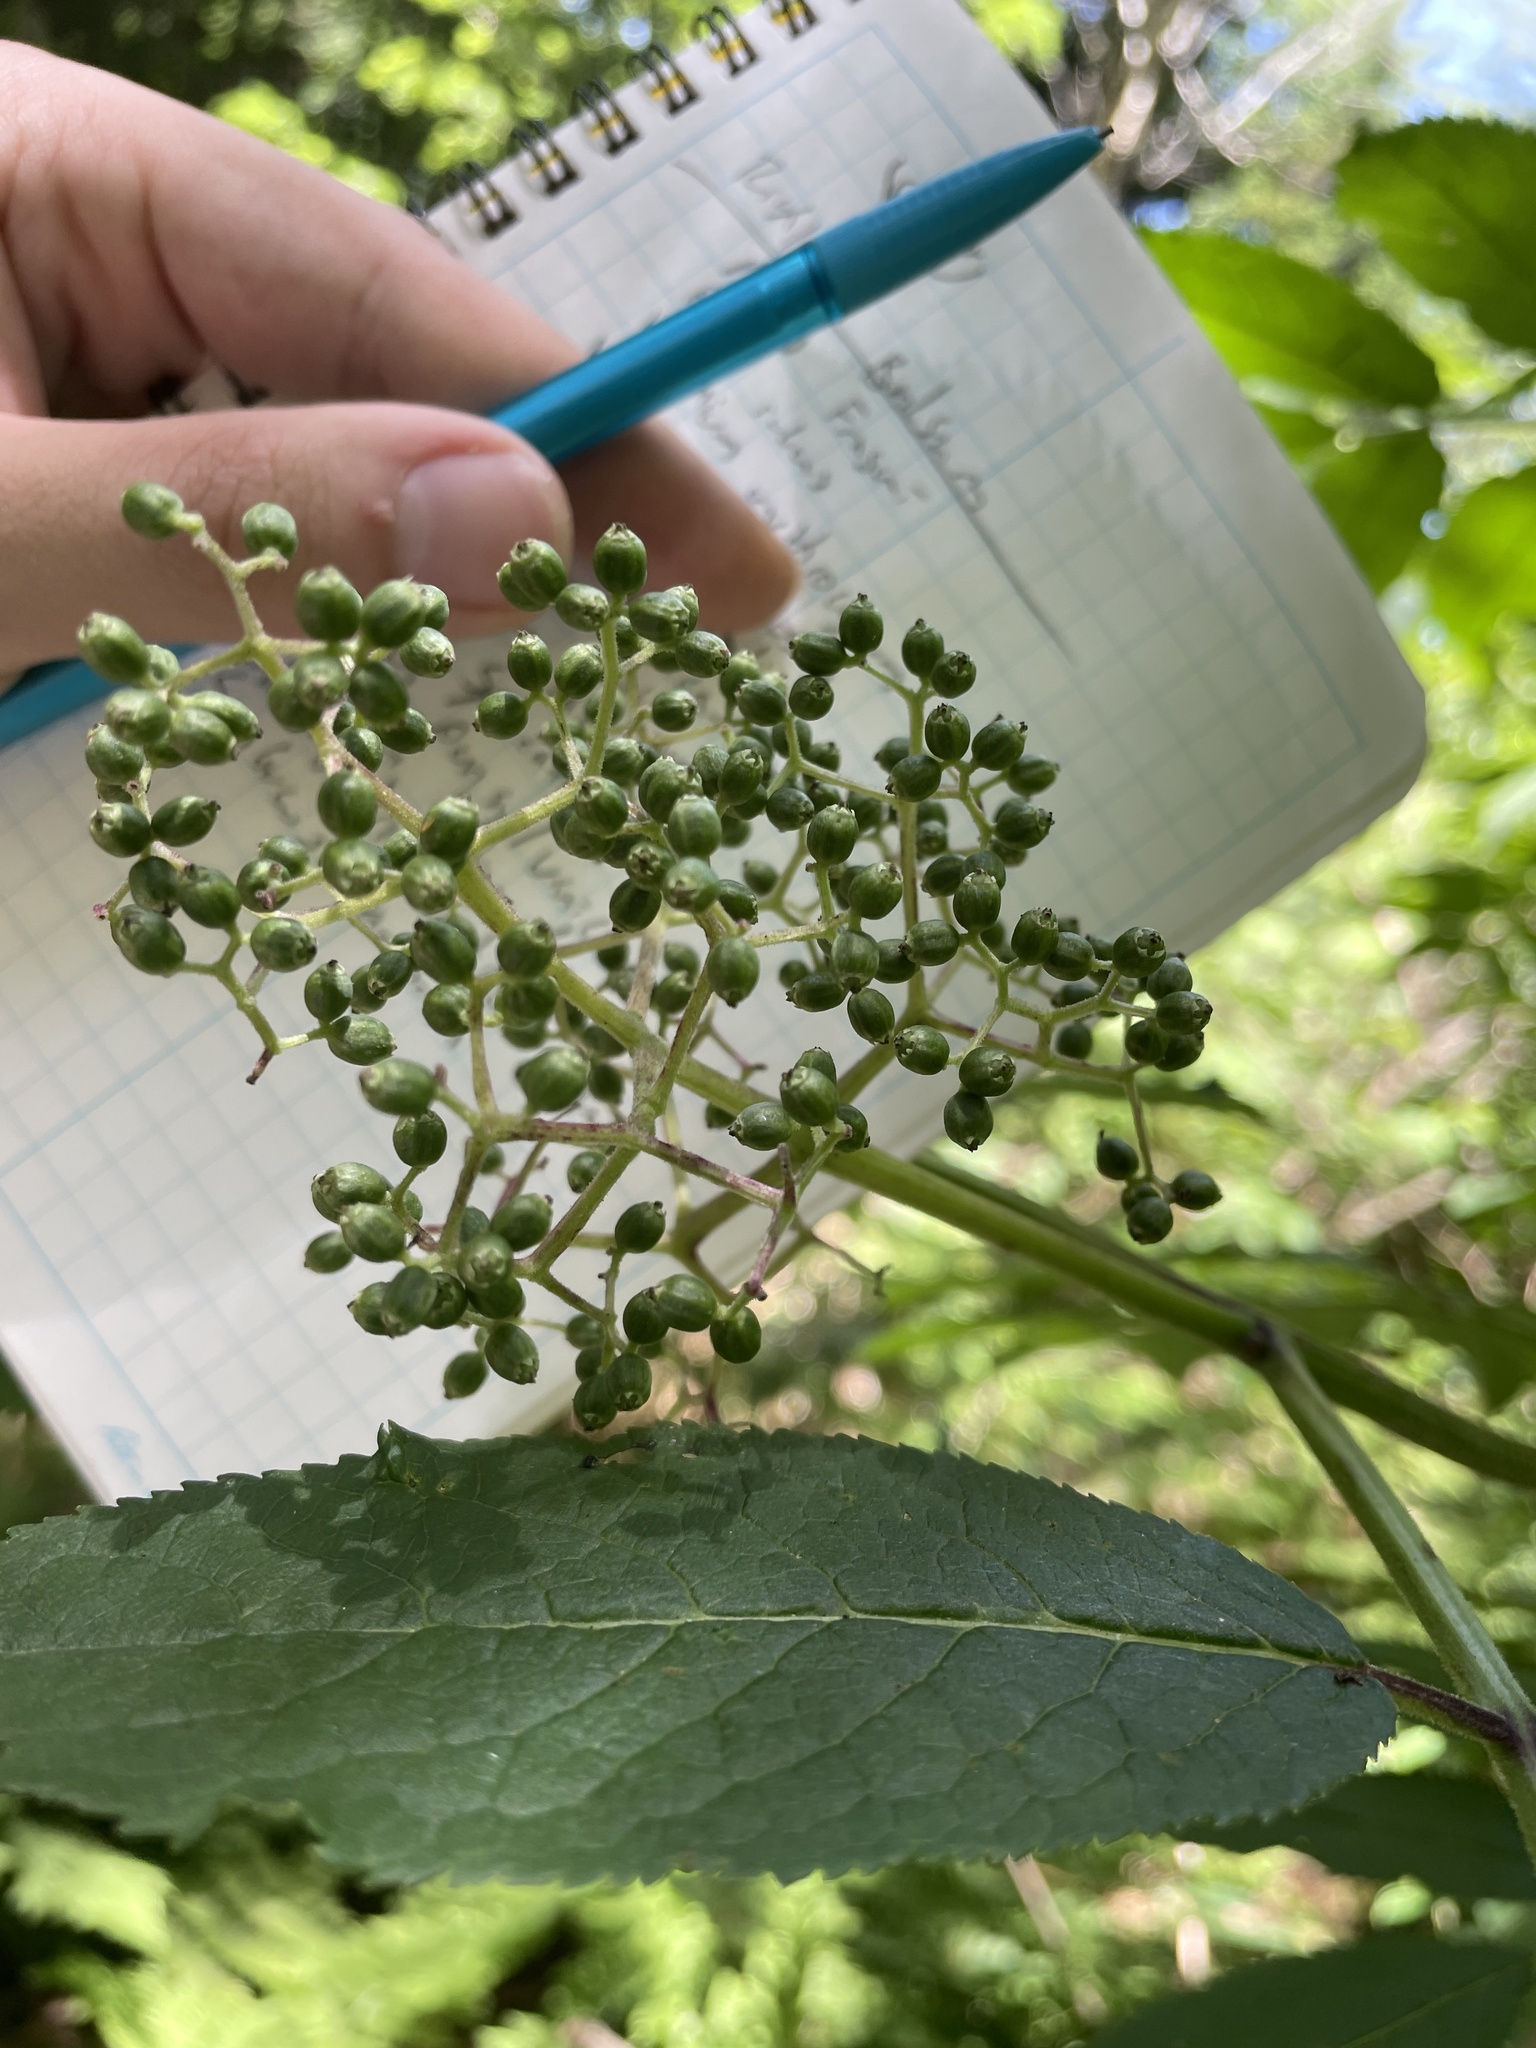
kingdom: Plantae
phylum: Tracheophyta
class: Magnoliopsida
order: Dipsacales
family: Viburnaceae
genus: Sambucus
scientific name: Sambucus racemosa
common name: Red-berried elder
